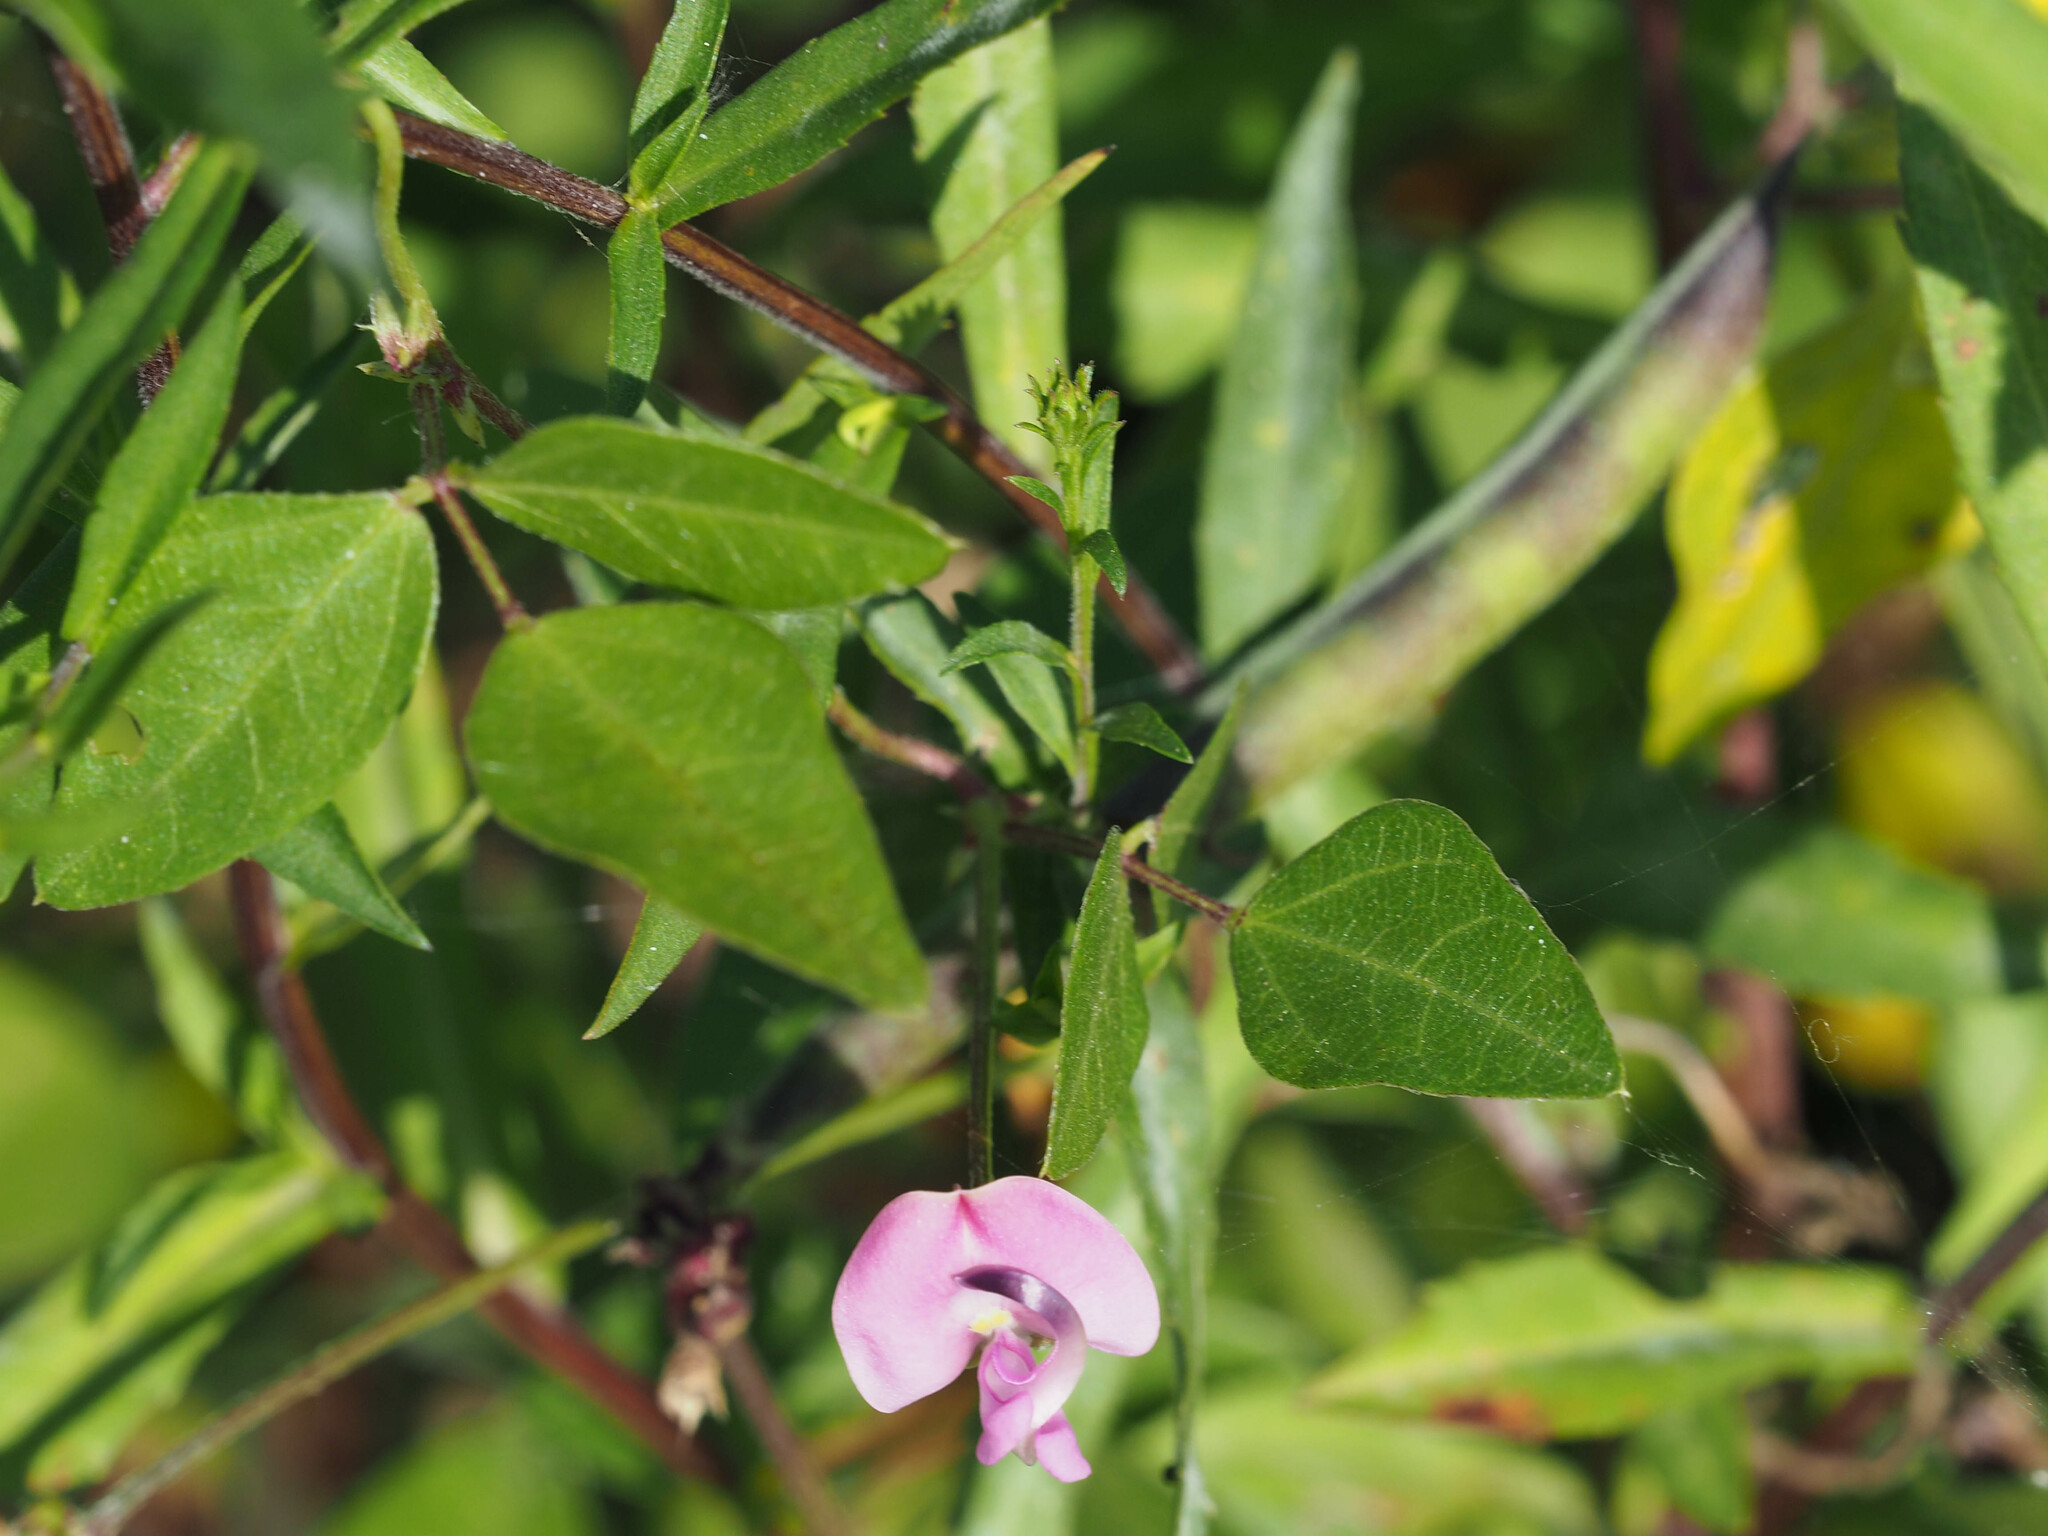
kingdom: Plantae
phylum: Tracheophyta
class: Magnoliopsida
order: Fabales
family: Fabaceae
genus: Strophostyles
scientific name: Strophostyles helvola
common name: Trailing wild bean
